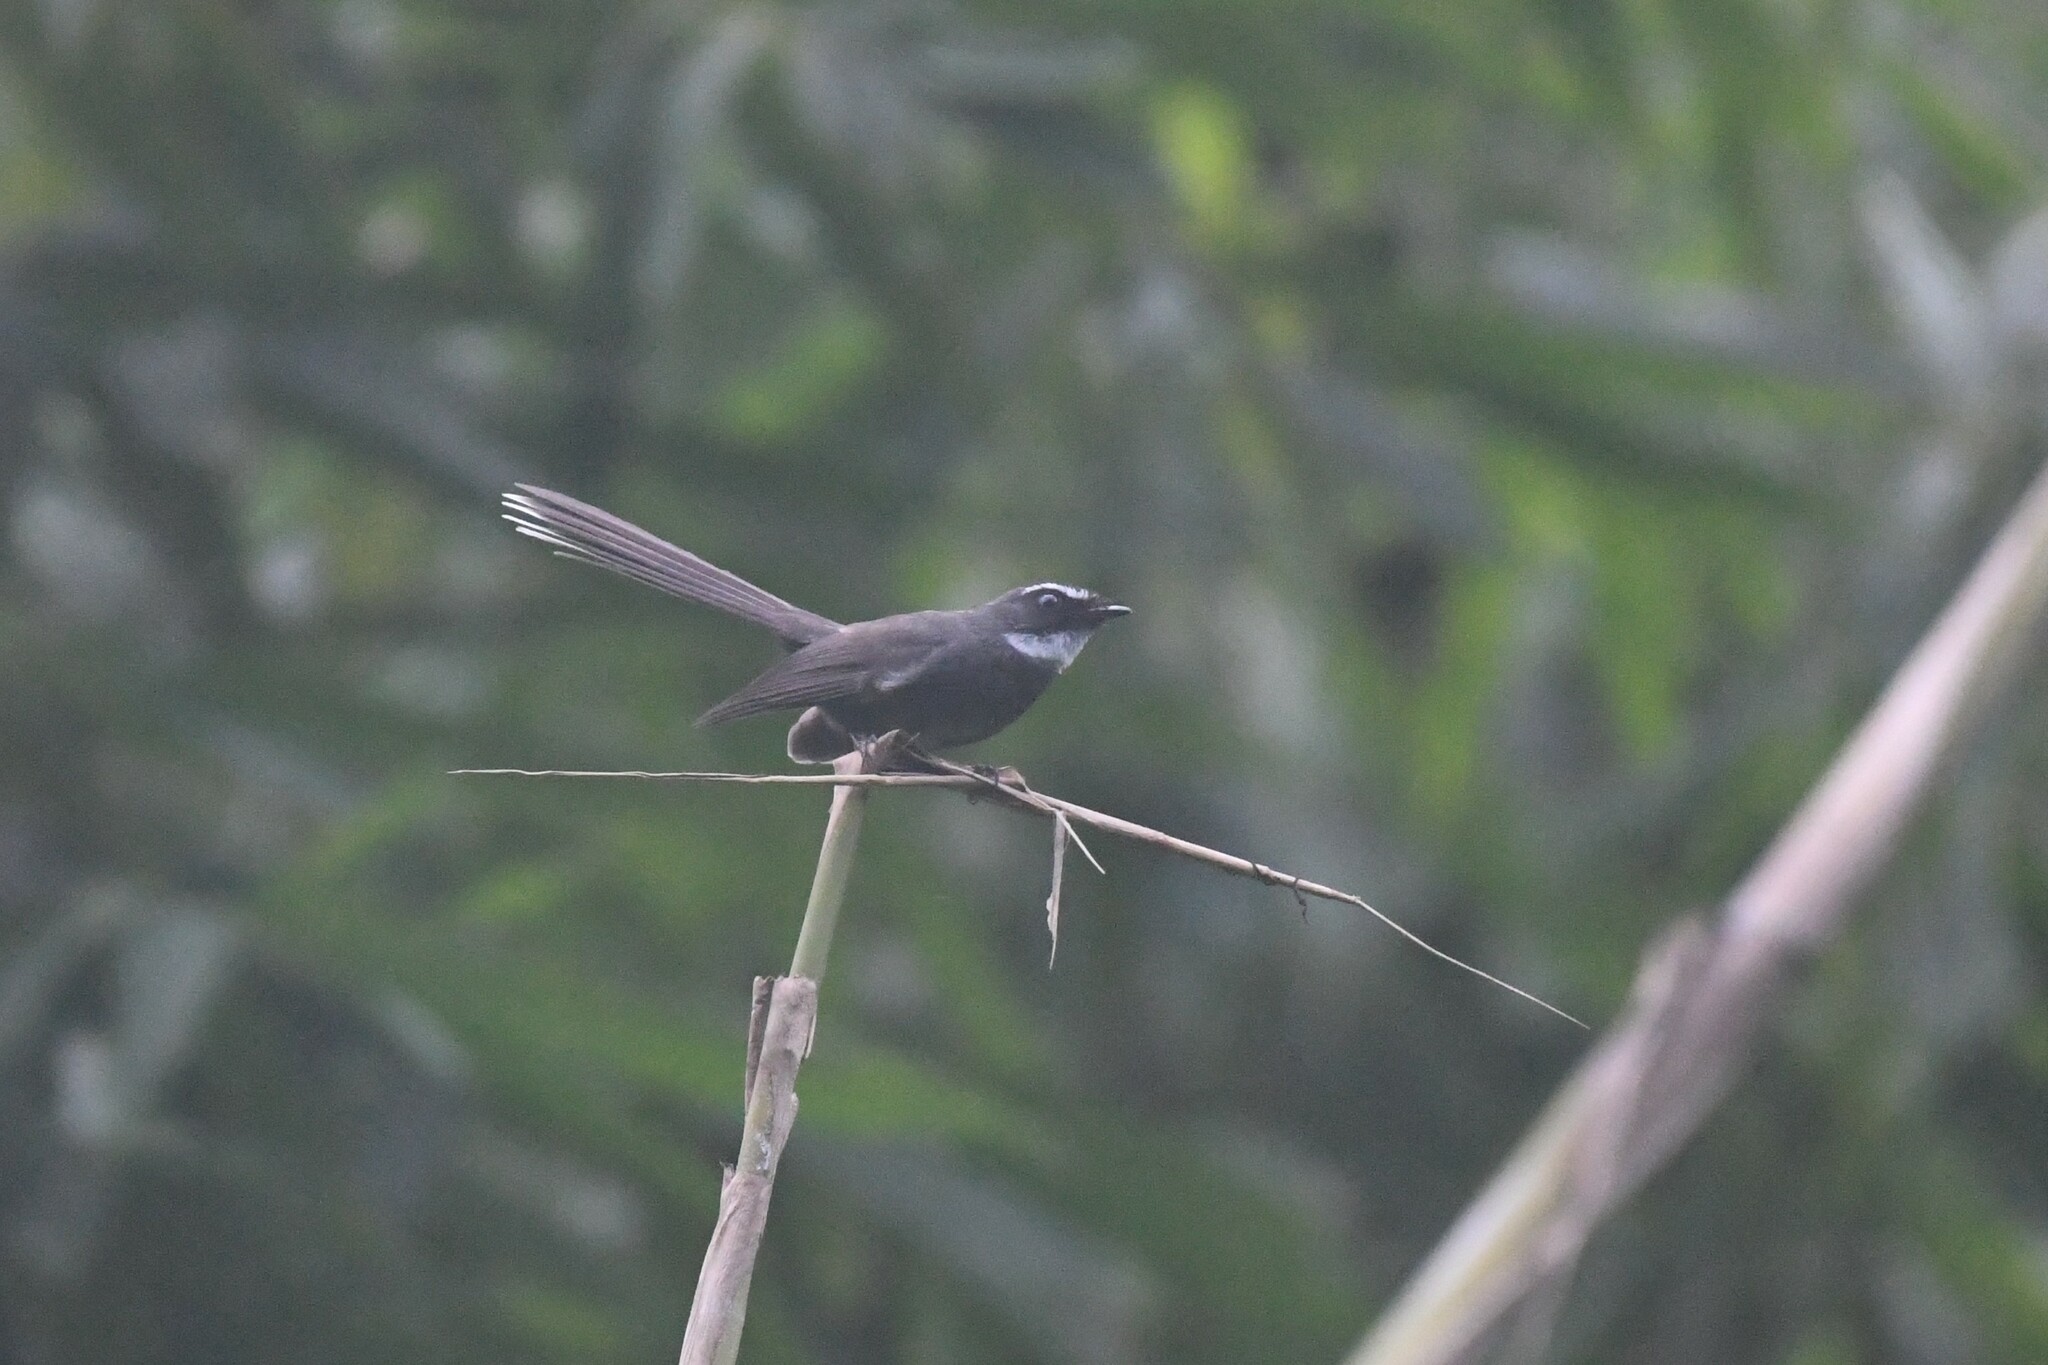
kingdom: Animalia
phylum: Chordata
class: Aves
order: Passeriformes
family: Rhipiduridae
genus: Rhipidura
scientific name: Rhipidura albicollis
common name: White-throated fantail
